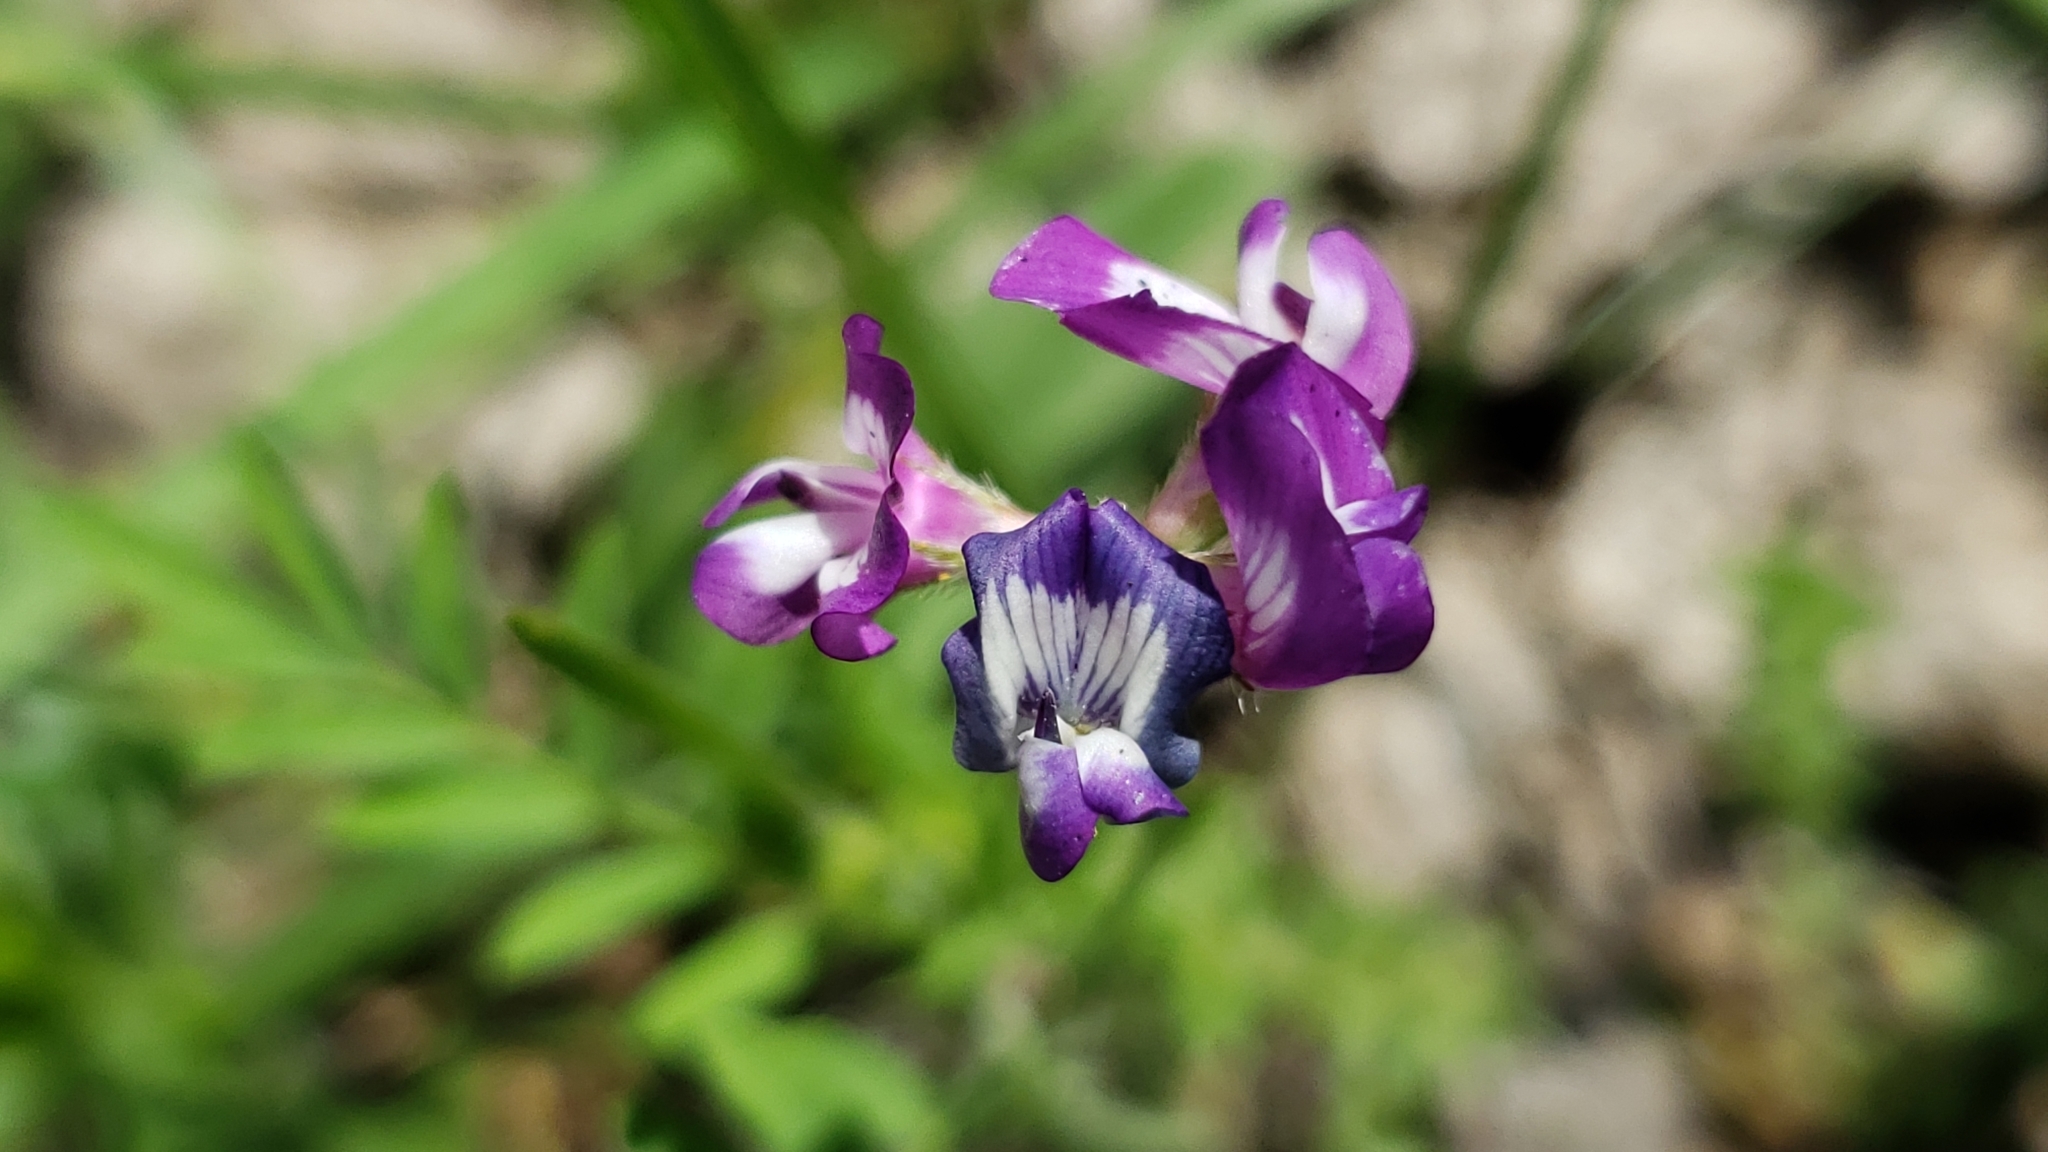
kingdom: Plantae
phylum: Tracheophyta
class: Magnoliopsida
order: Fabales
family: Fabaceae
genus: Astragalus
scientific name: Astragalus nuttallianus
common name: Smallflowered milkvetch
